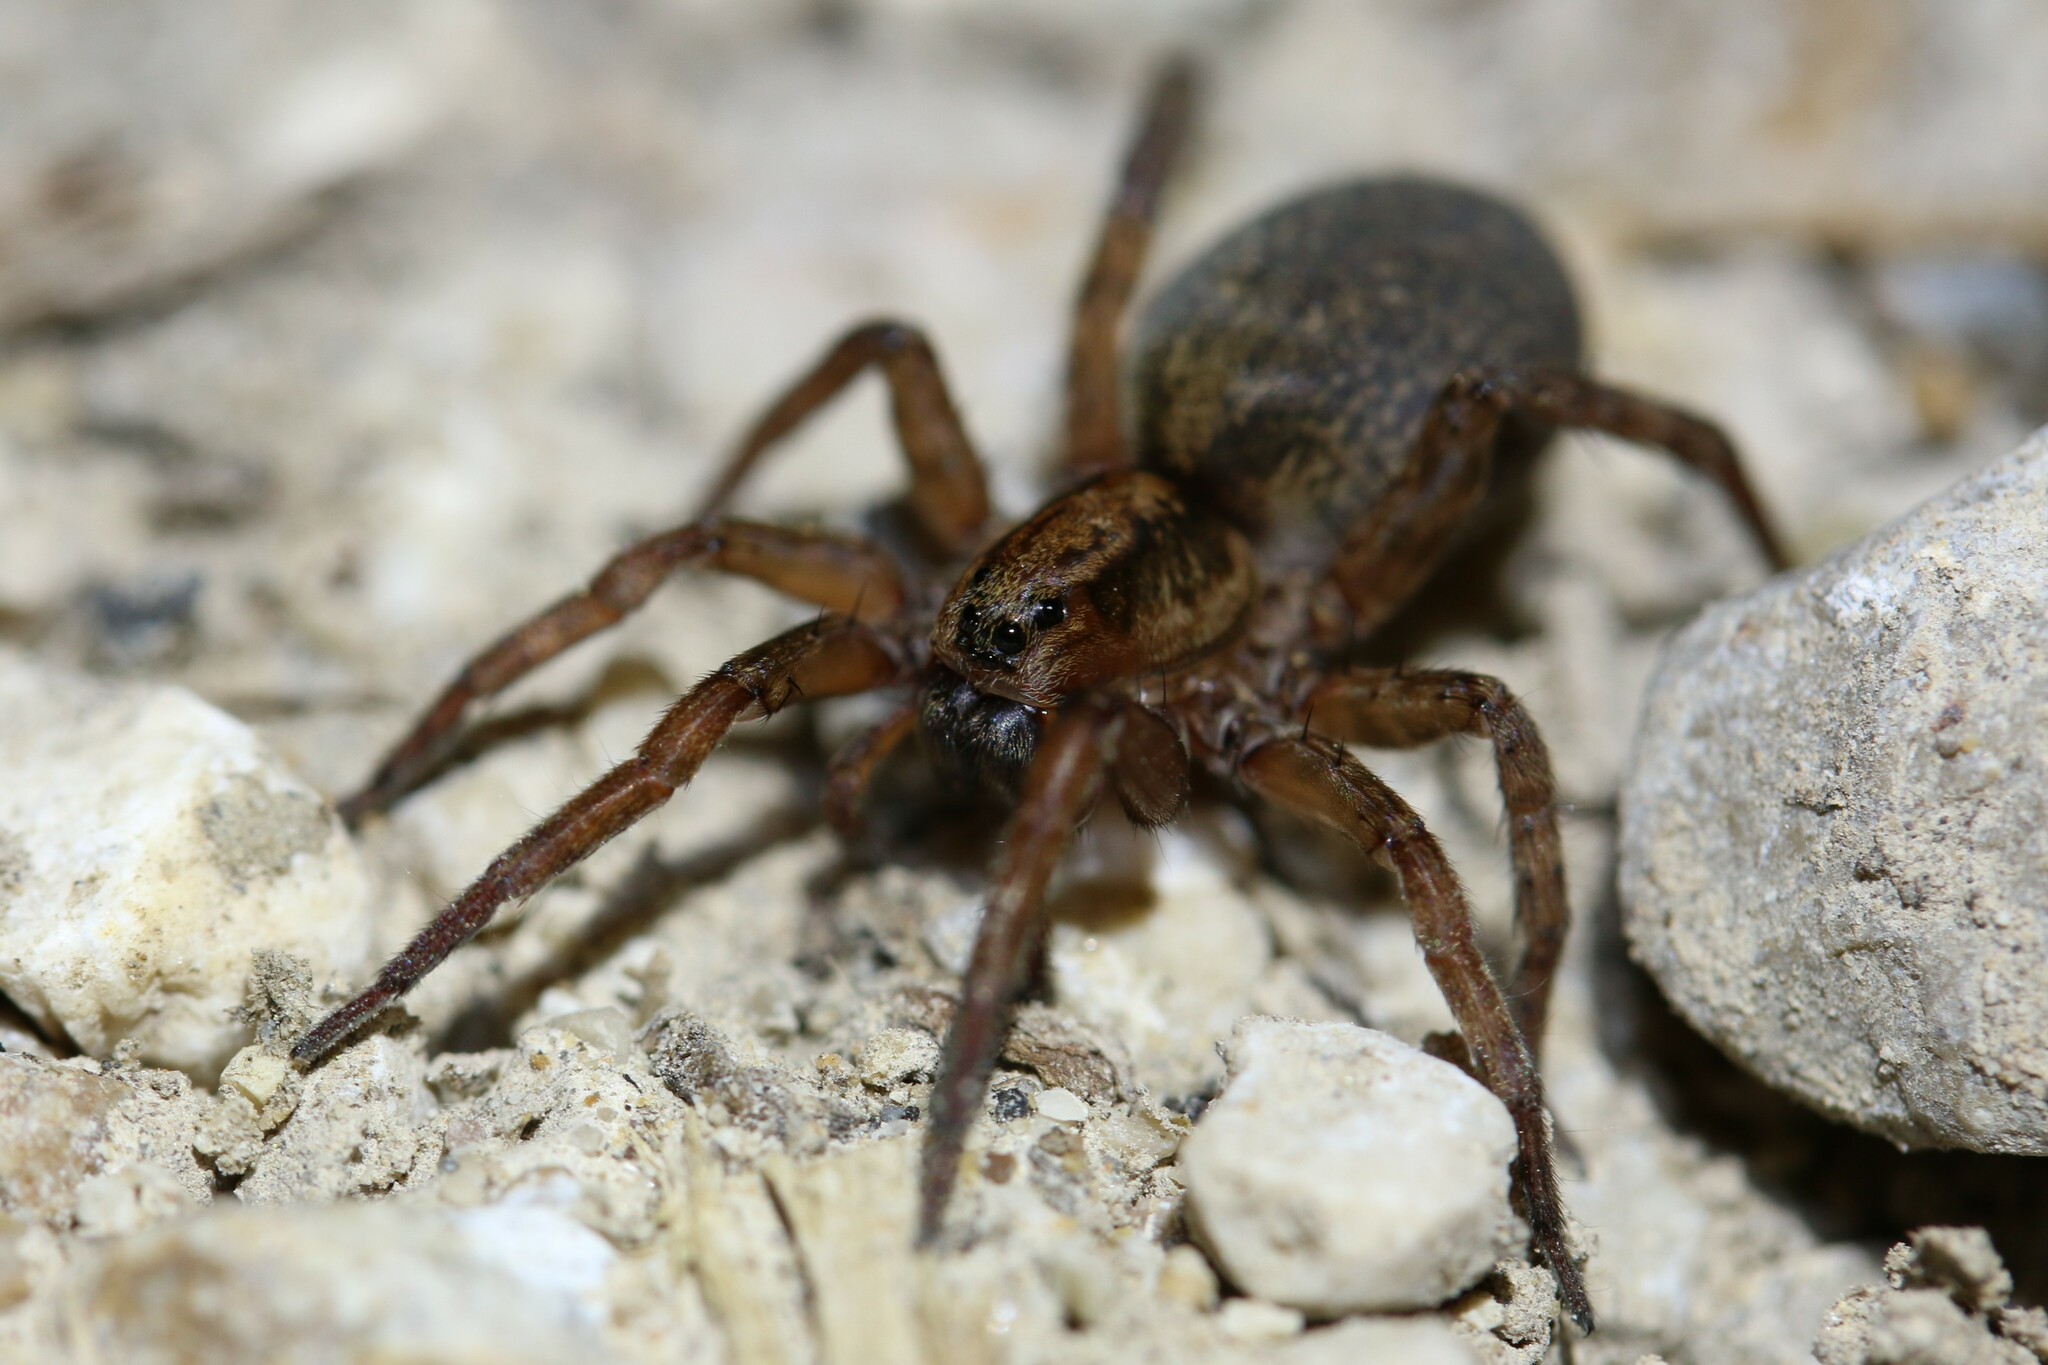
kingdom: Animalia
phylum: Arthropoda
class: Arachnida
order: Araneae
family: Lycosidae
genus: Trochosa
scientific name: Trochosa
